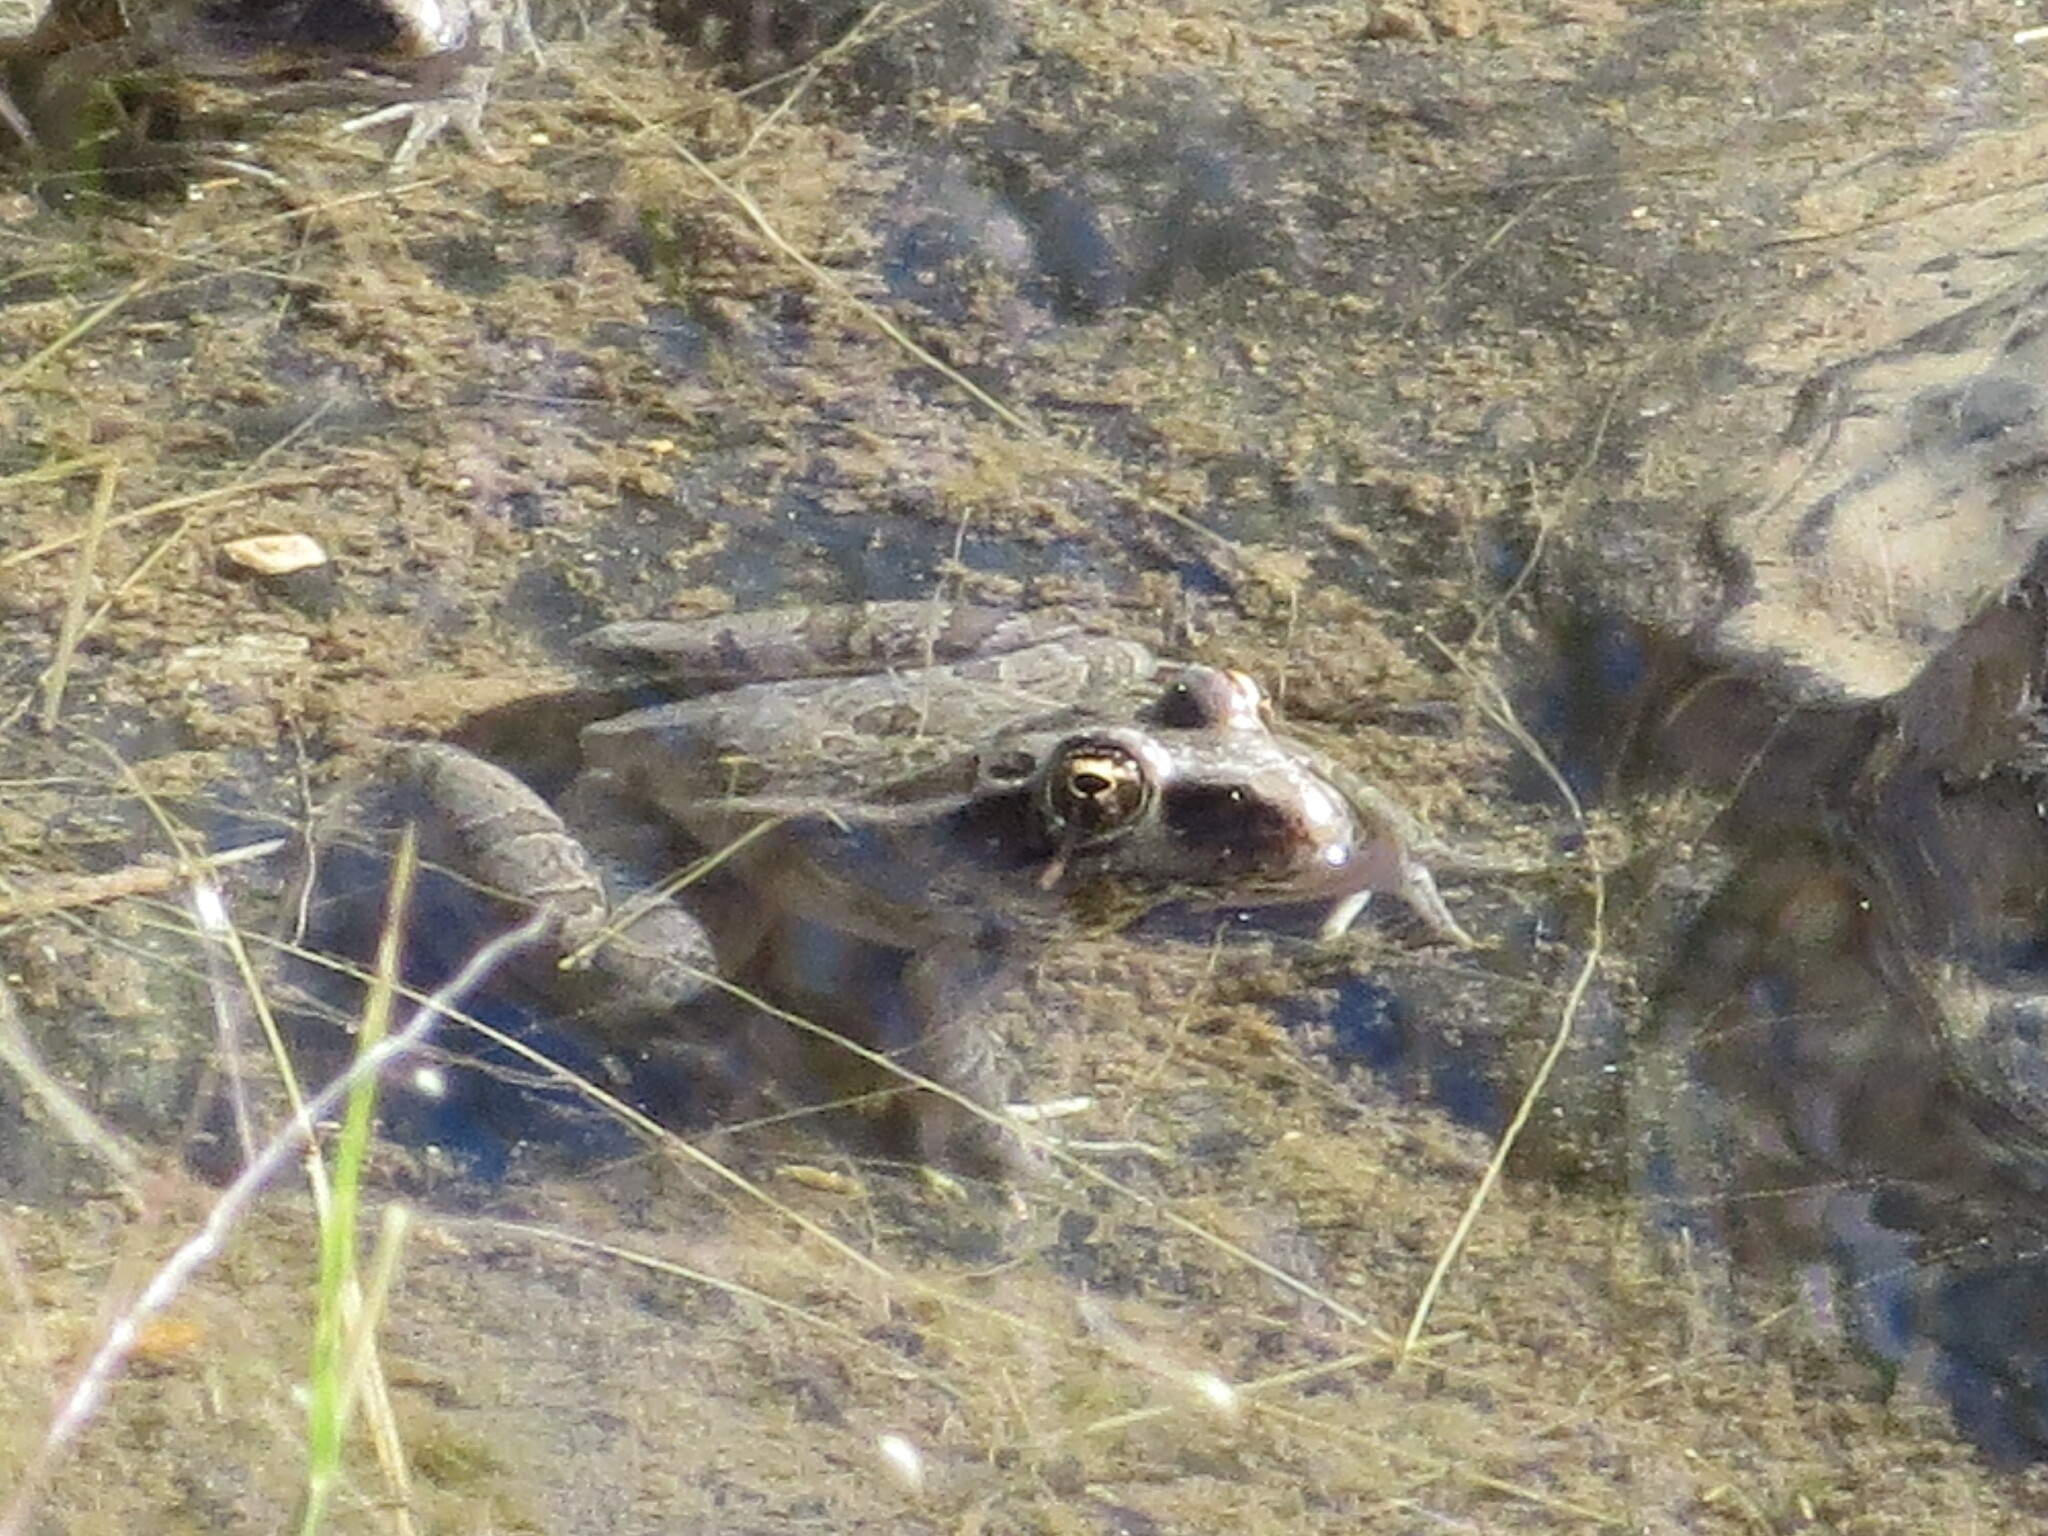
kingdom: Animalia
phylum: Chordata
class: Amphibia
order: Anura
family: Ranidae
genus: Lithobates
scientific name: Lithobates berlandieri
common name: Rio grande leopard frog
